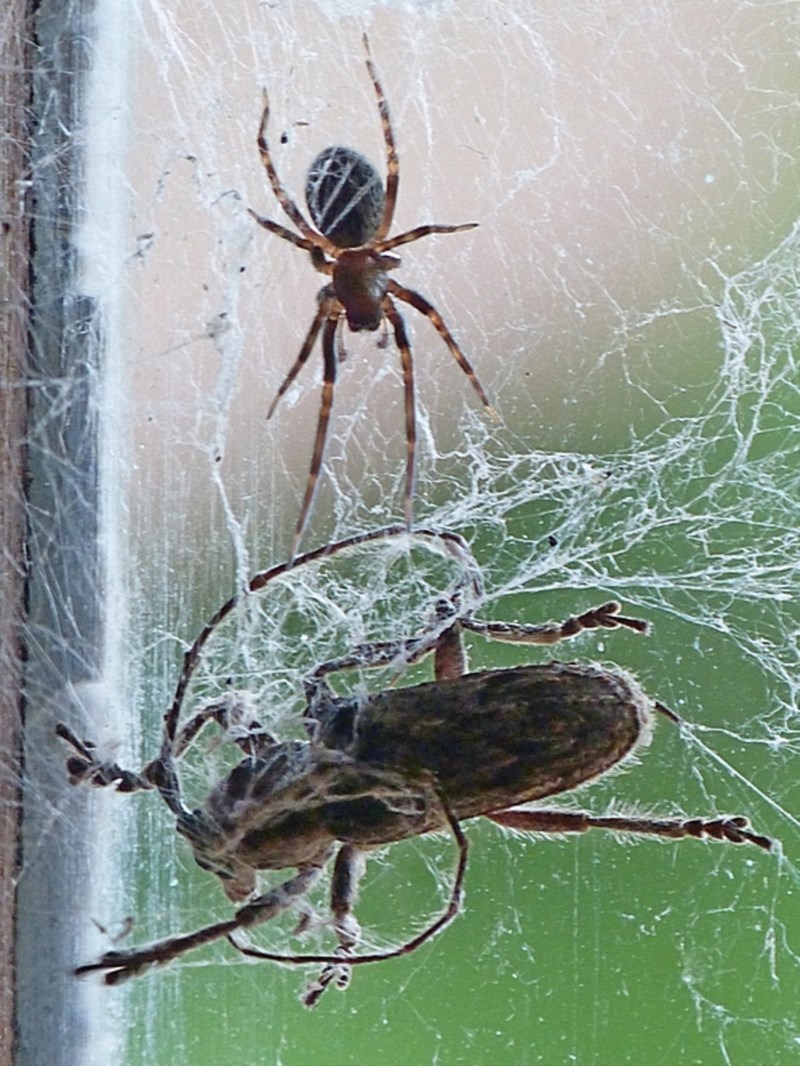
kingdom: Animalia
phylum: Arthropoda
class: Insecta
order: Coleoptera
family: Cerambycidae
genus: Rhytiphora
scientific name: Rhytiphora piligera
